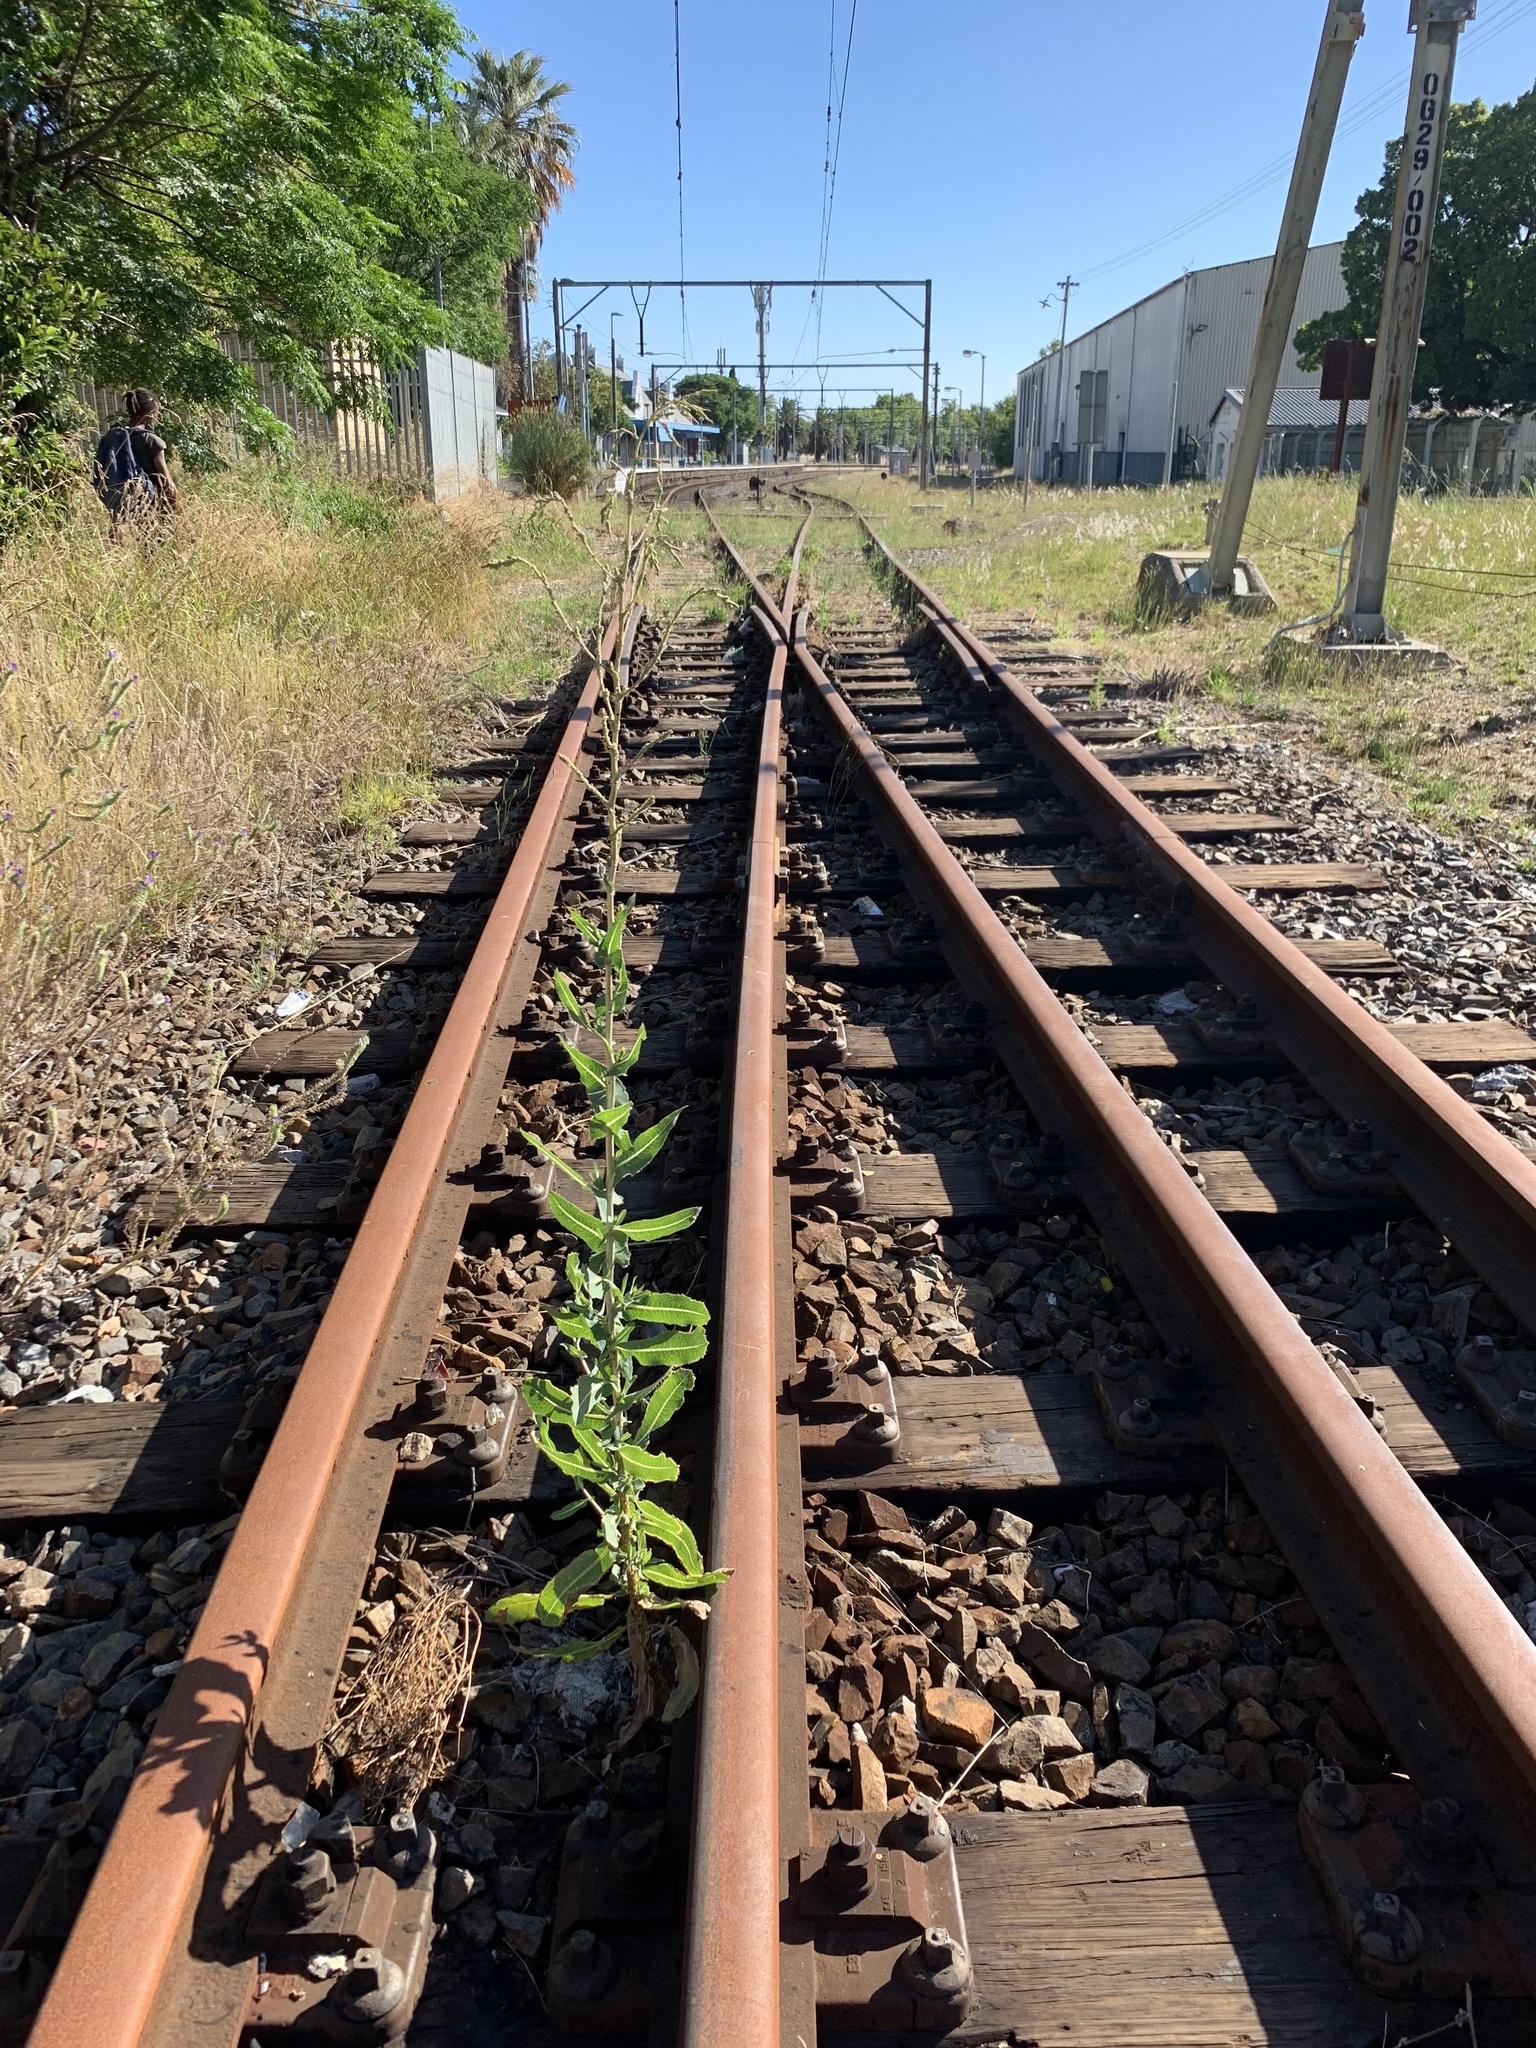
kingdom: Plantae
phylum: Tracheophyta
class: Magnoliopsida
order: Asterales
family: Asteraceae
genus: Lactuca
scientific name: Lactuca serriola
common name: Prickly lettuce
